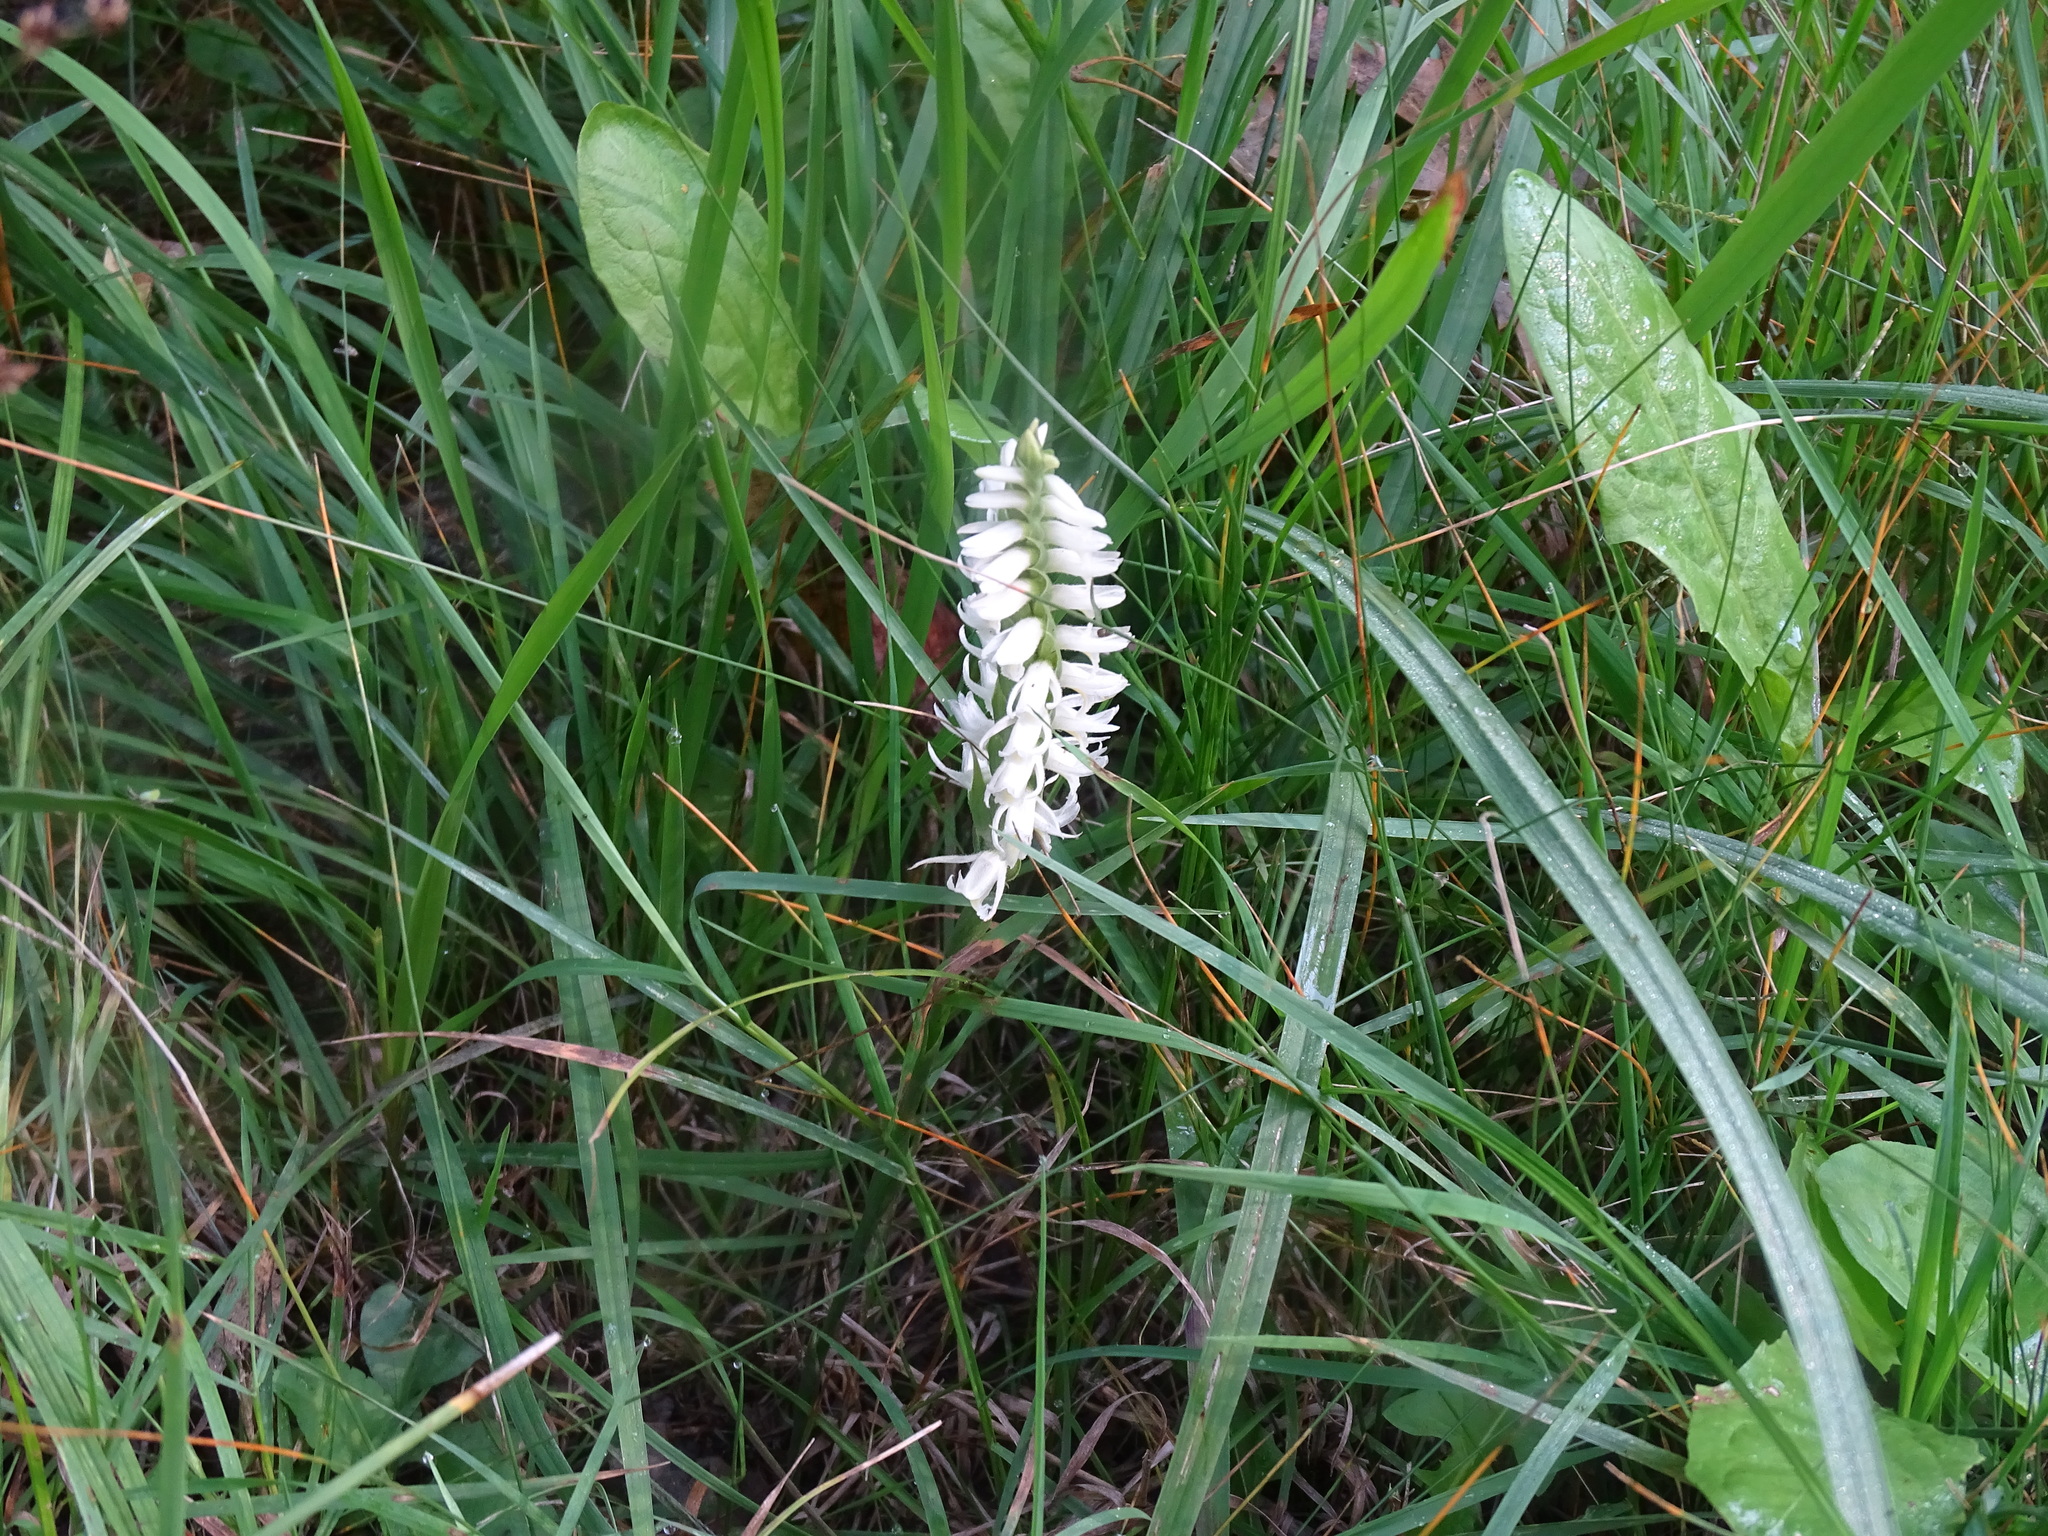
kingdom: Plantae
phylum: Tracheophyta
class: Liliopsida
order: Asparagales
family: Orchidaceae
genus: Spiranthes
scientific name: Spiranthes magnicamporum
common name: Great plains ladies'-tresses
